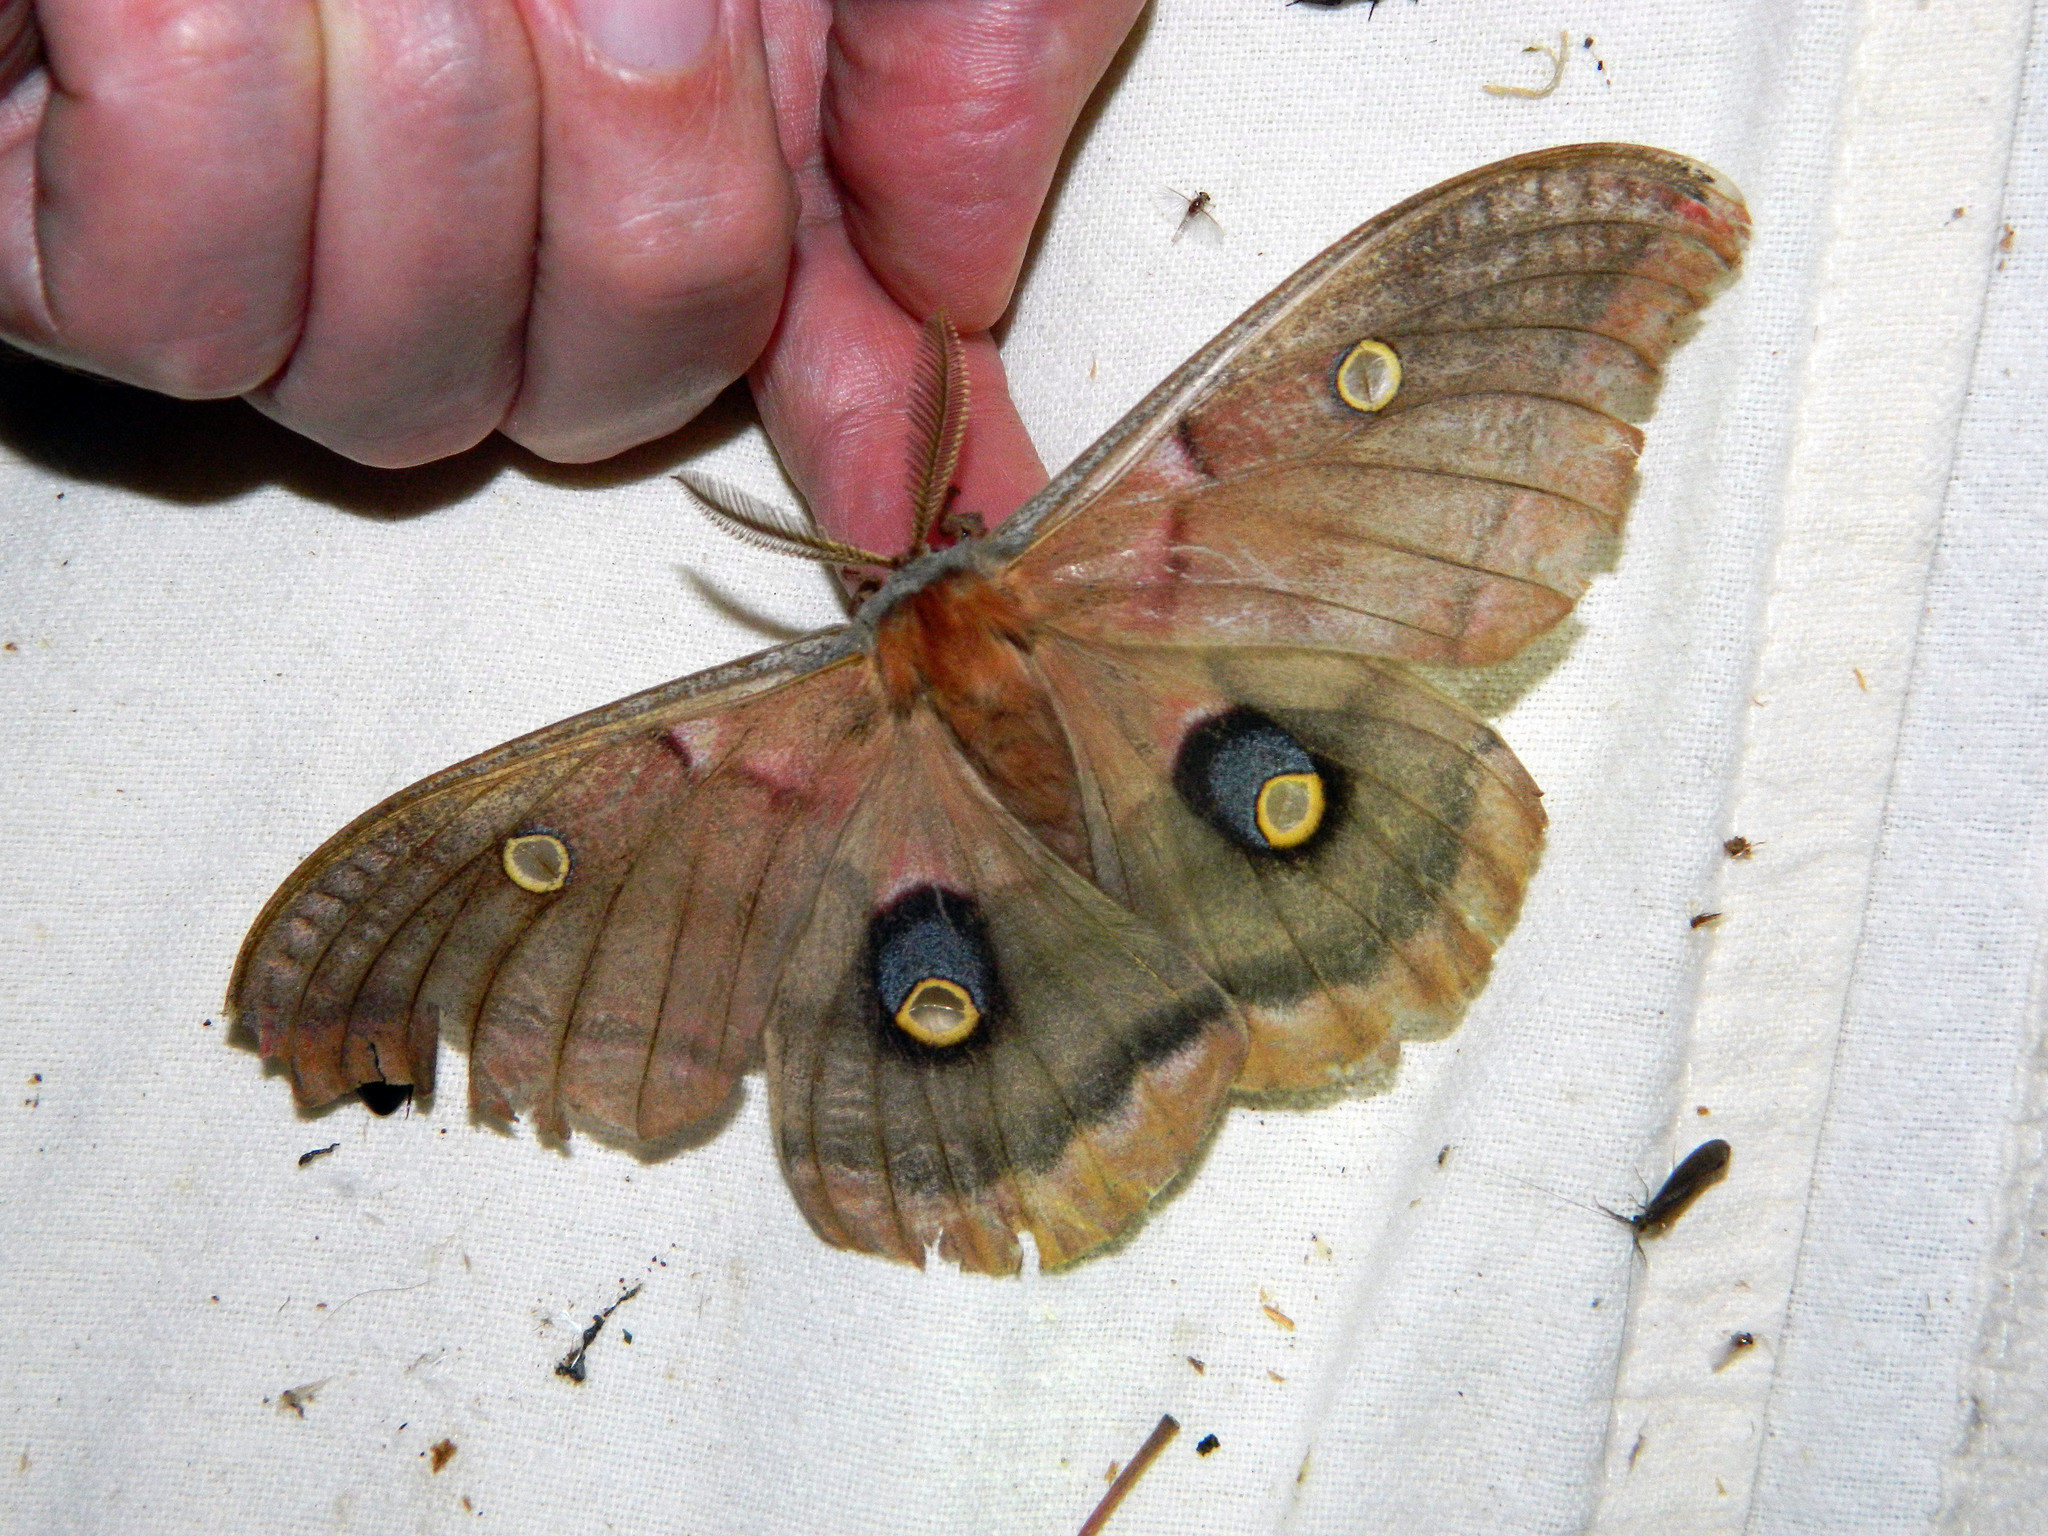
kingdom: Animalia
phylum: Arthropoda
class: Insecta
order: Lepidoptera
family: Saturniidae
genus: Antheraea
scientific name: Antheraea polyphemus
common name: Polyphemus moth
